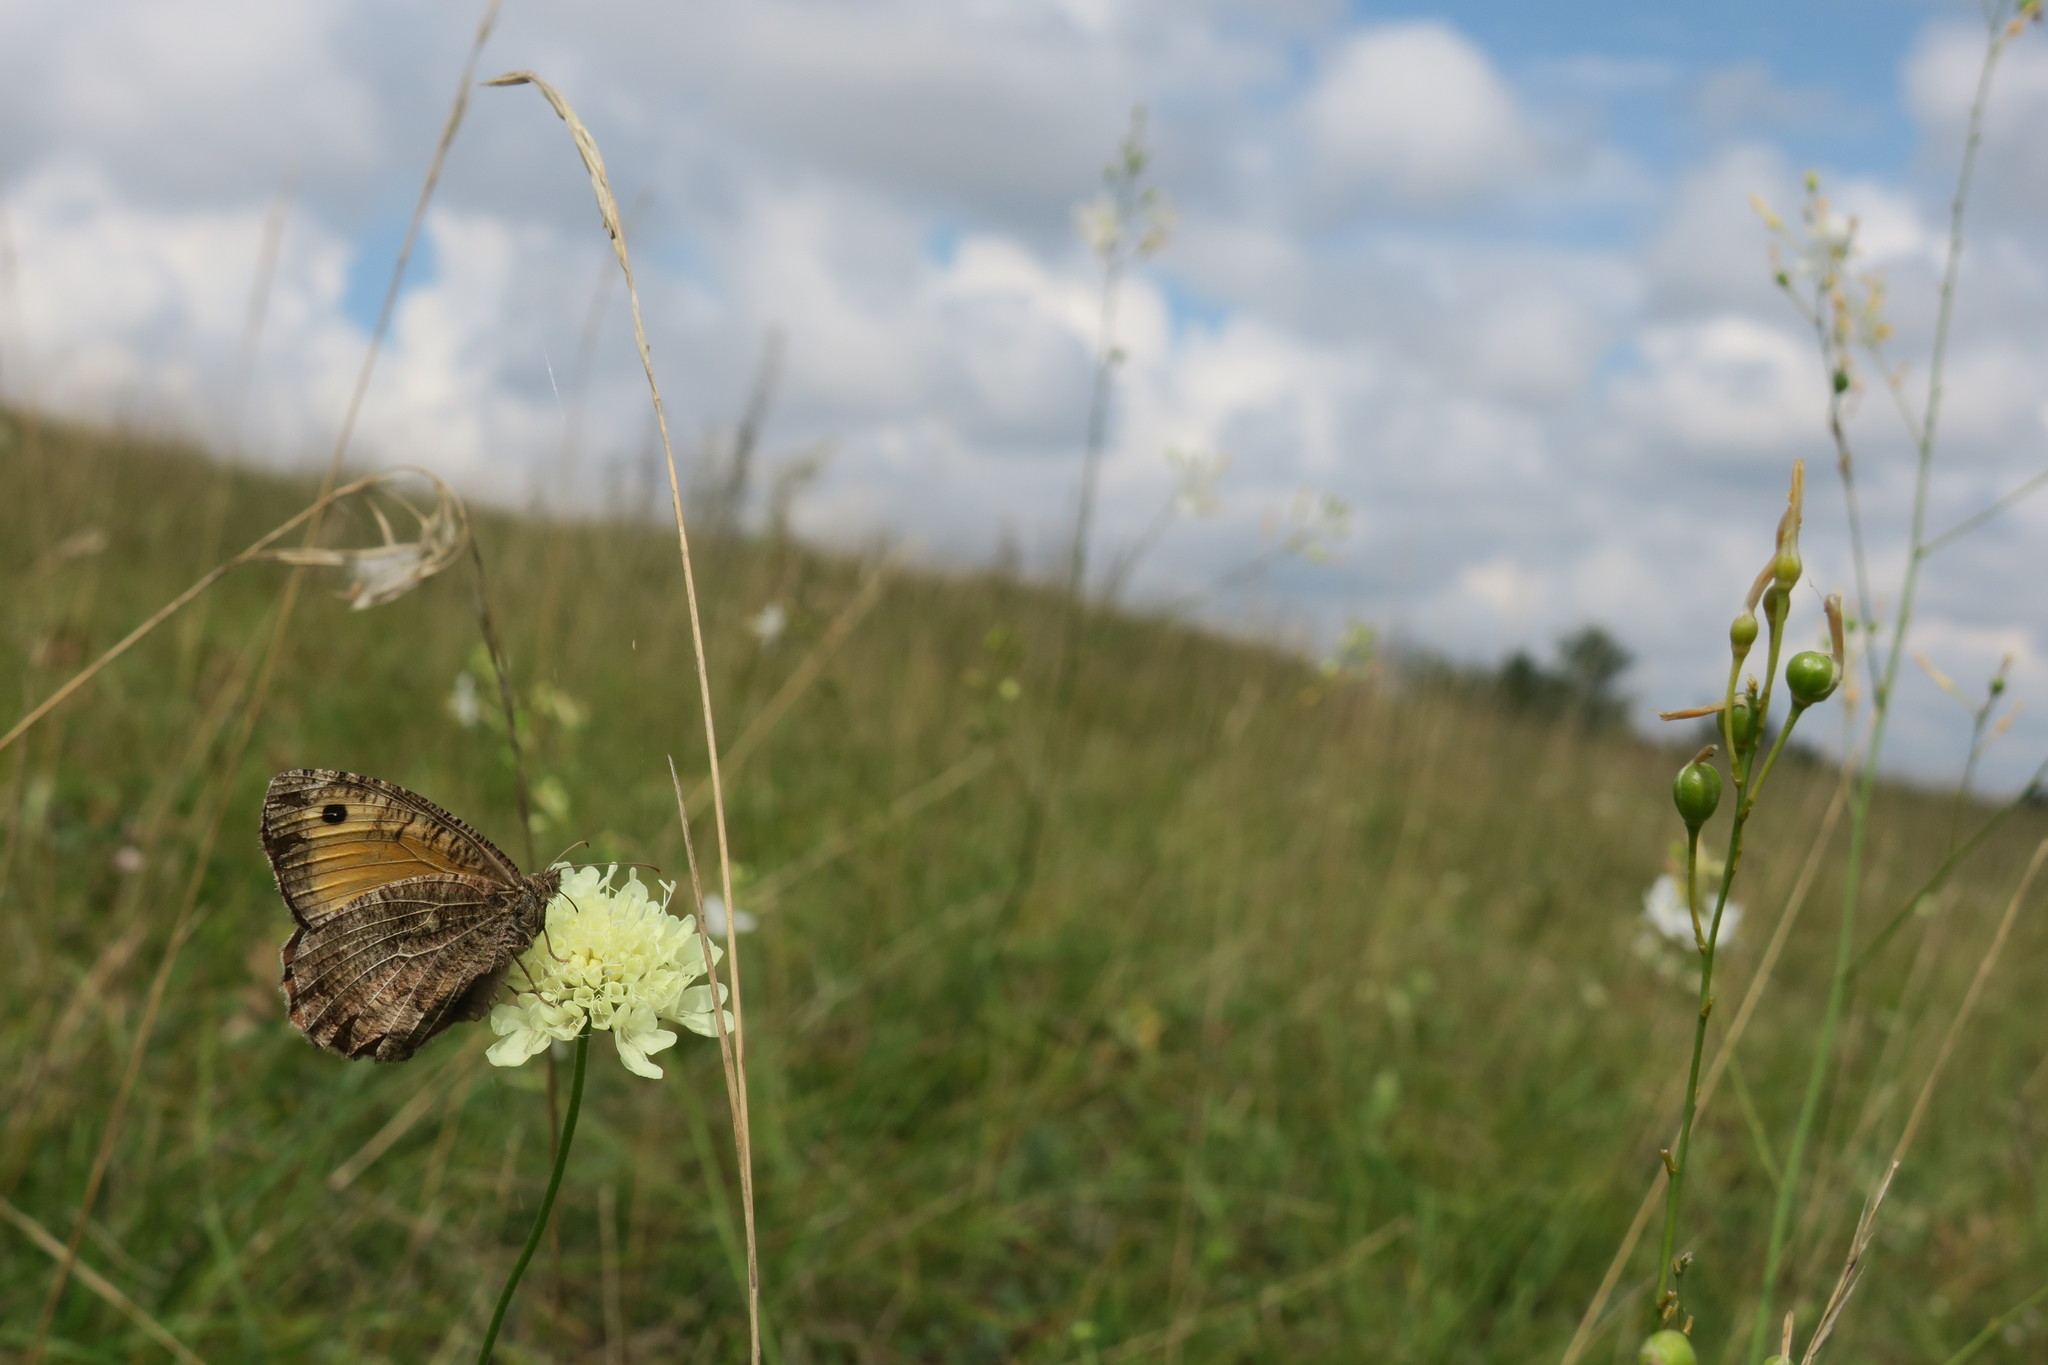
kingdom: Animalia
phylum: Arthropoda
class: Insecta
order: Lepidoptera
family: Nymphalidae
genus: Arethusana
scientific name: Arethusana arethusa
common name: False grayling
